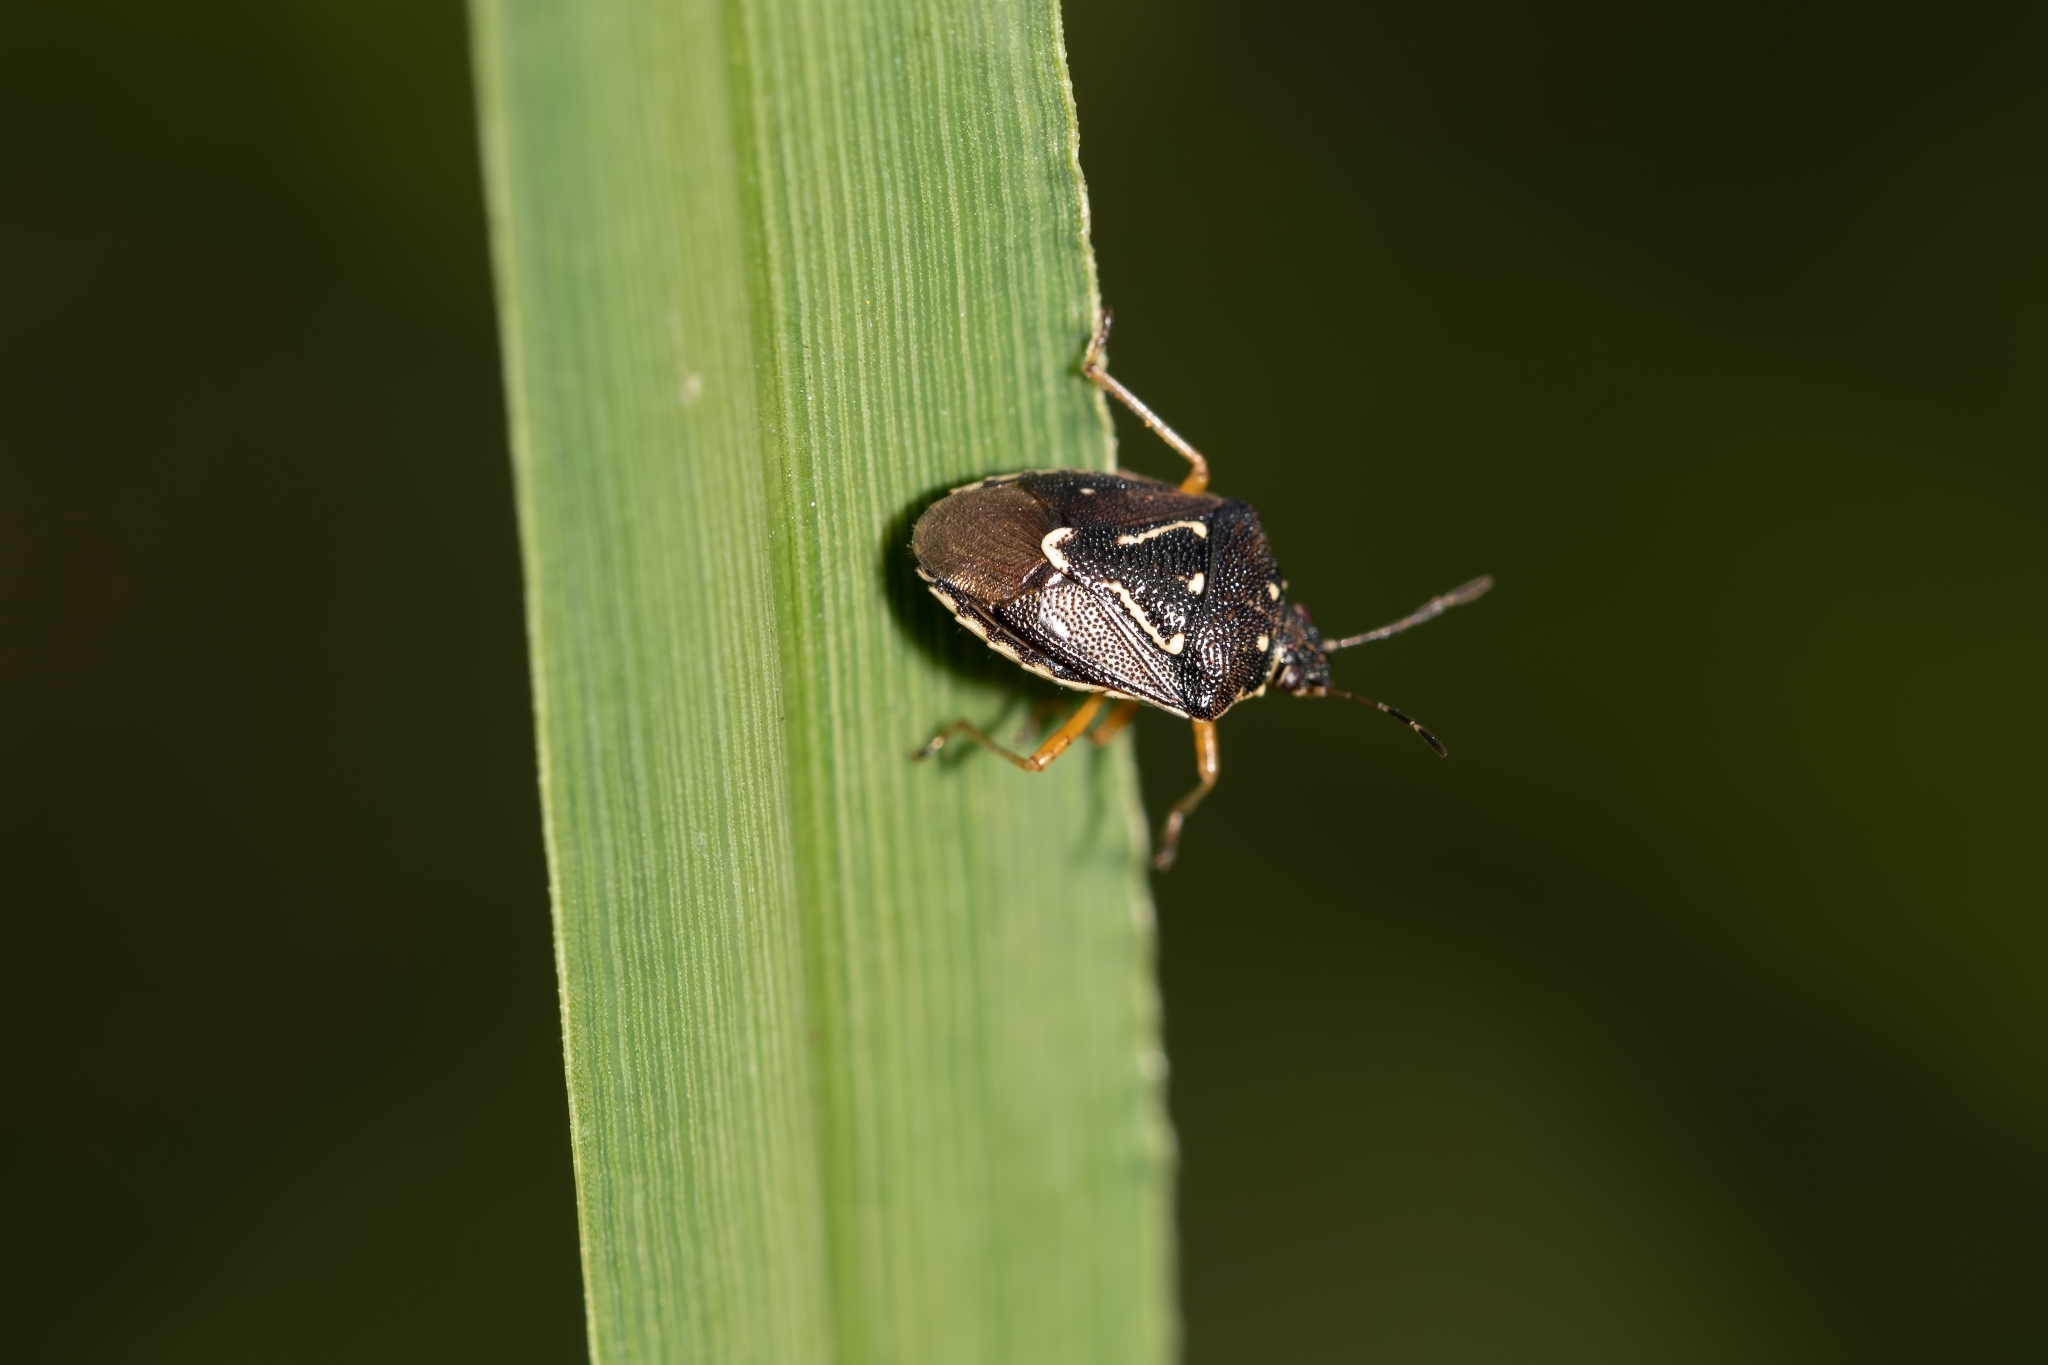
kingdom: Animalia
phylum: Arthropoda
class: Insecta
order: Hemiptera
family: Pentatomidae
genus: Mormidea
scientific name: Mormidea pama
